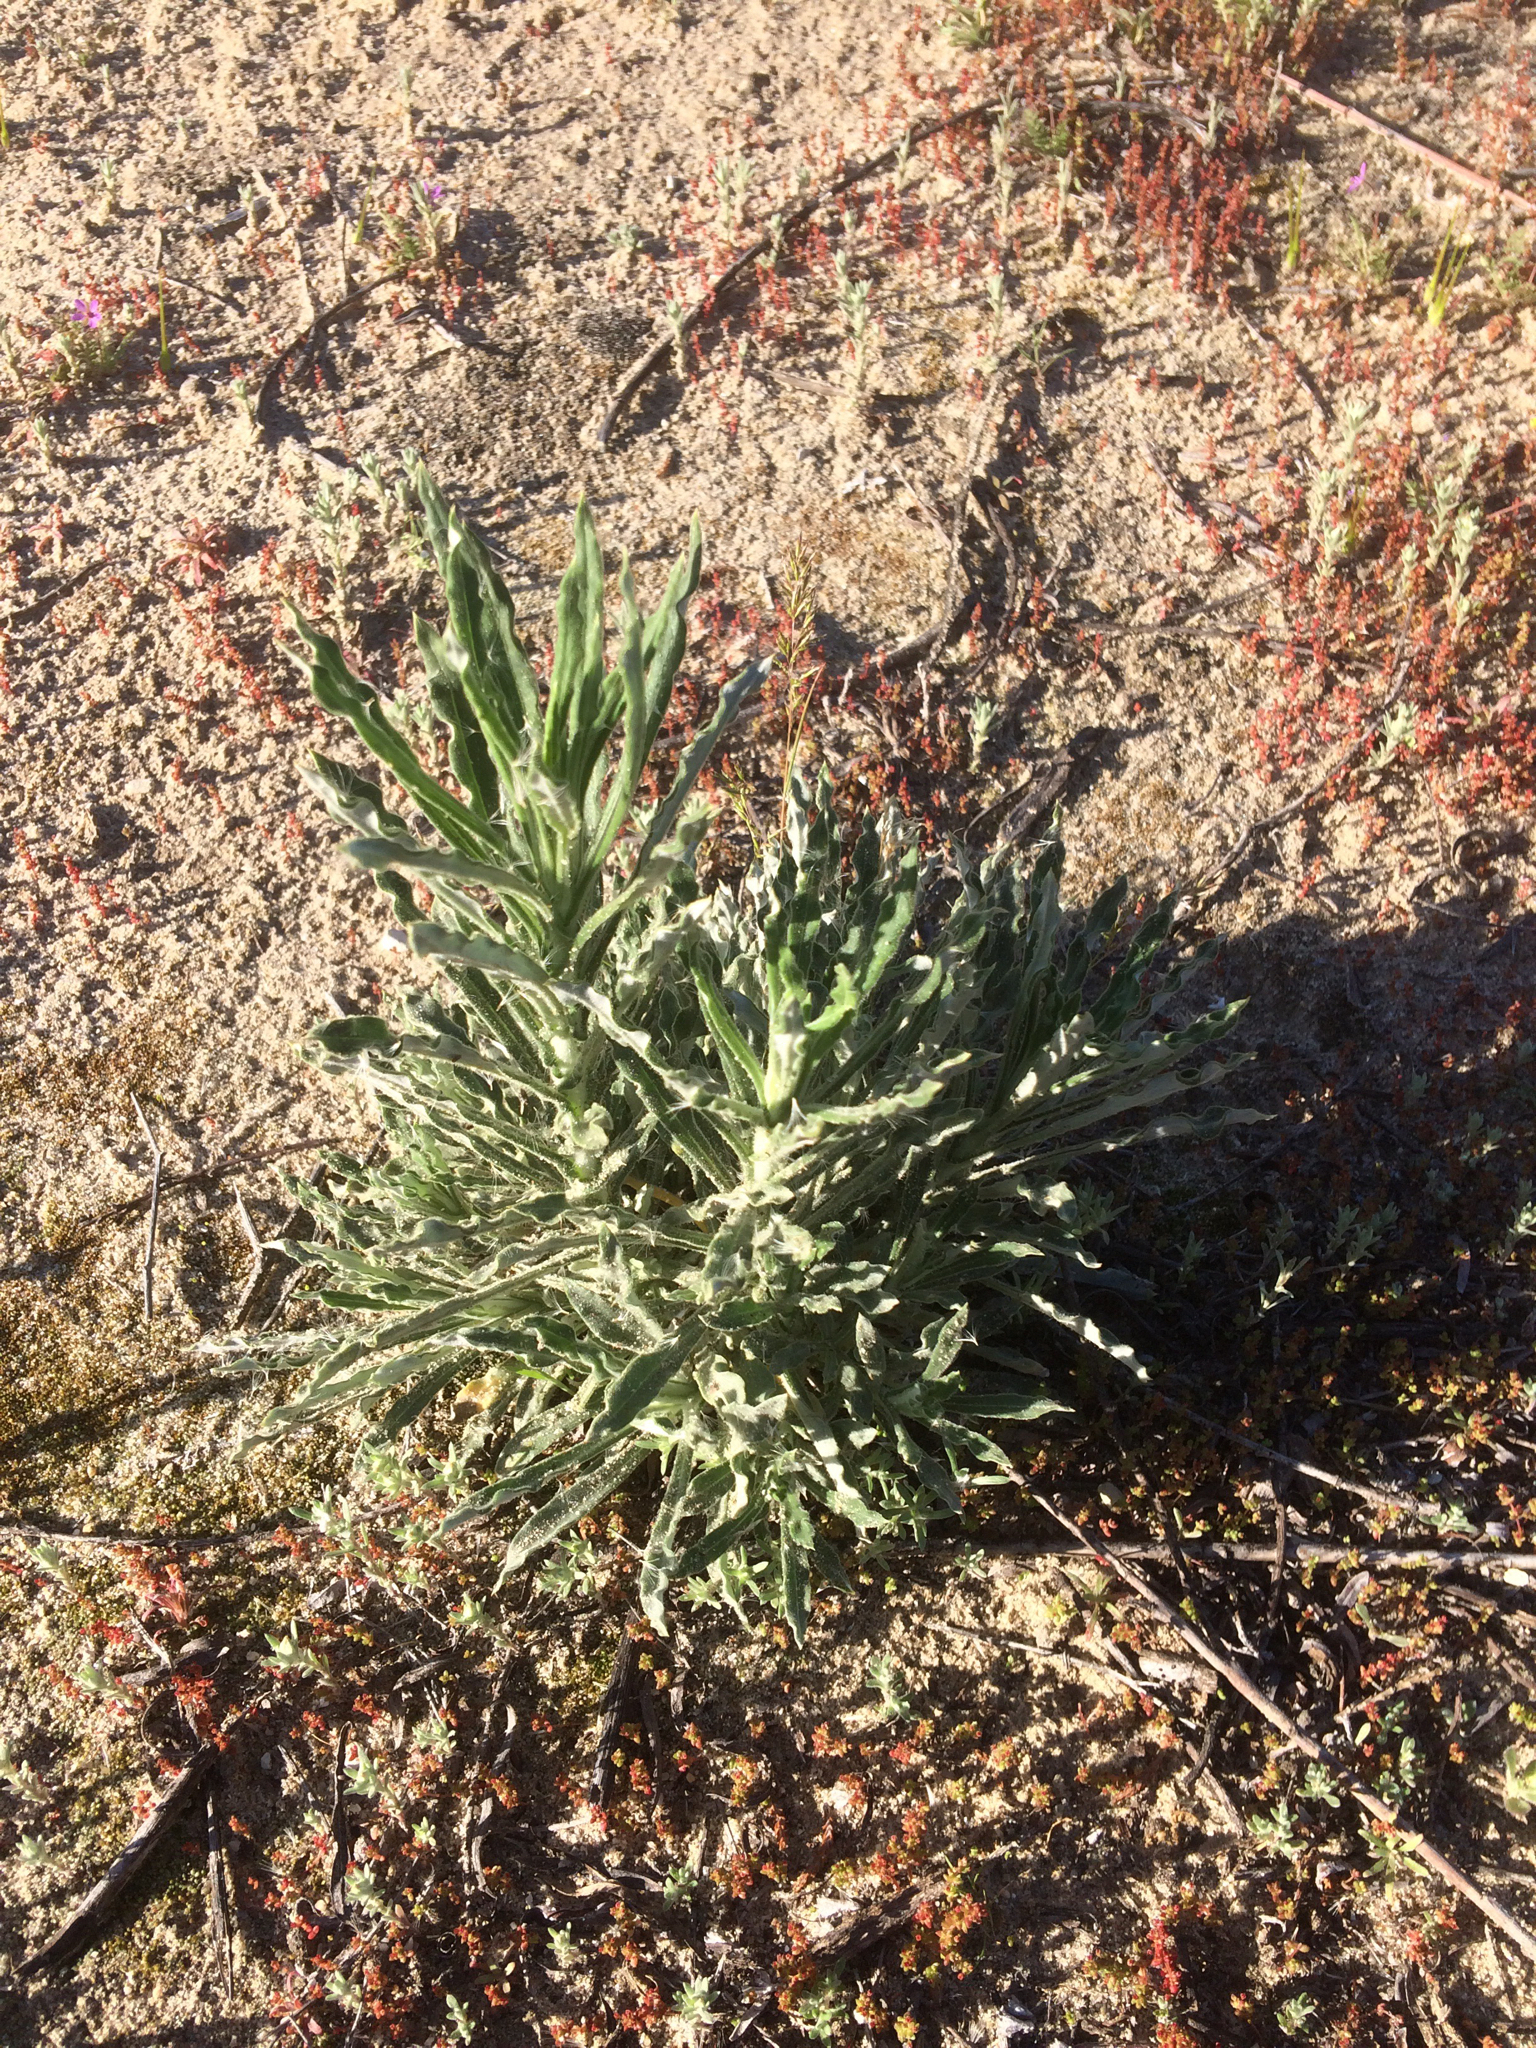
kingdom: Plantae
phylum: Tracheophyta
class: Magnoliopsida
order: Asterales
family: Asteraceae
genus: Pseudognaphalium
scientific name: Pseudognaphalium leucocephalum
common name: White cudweed
